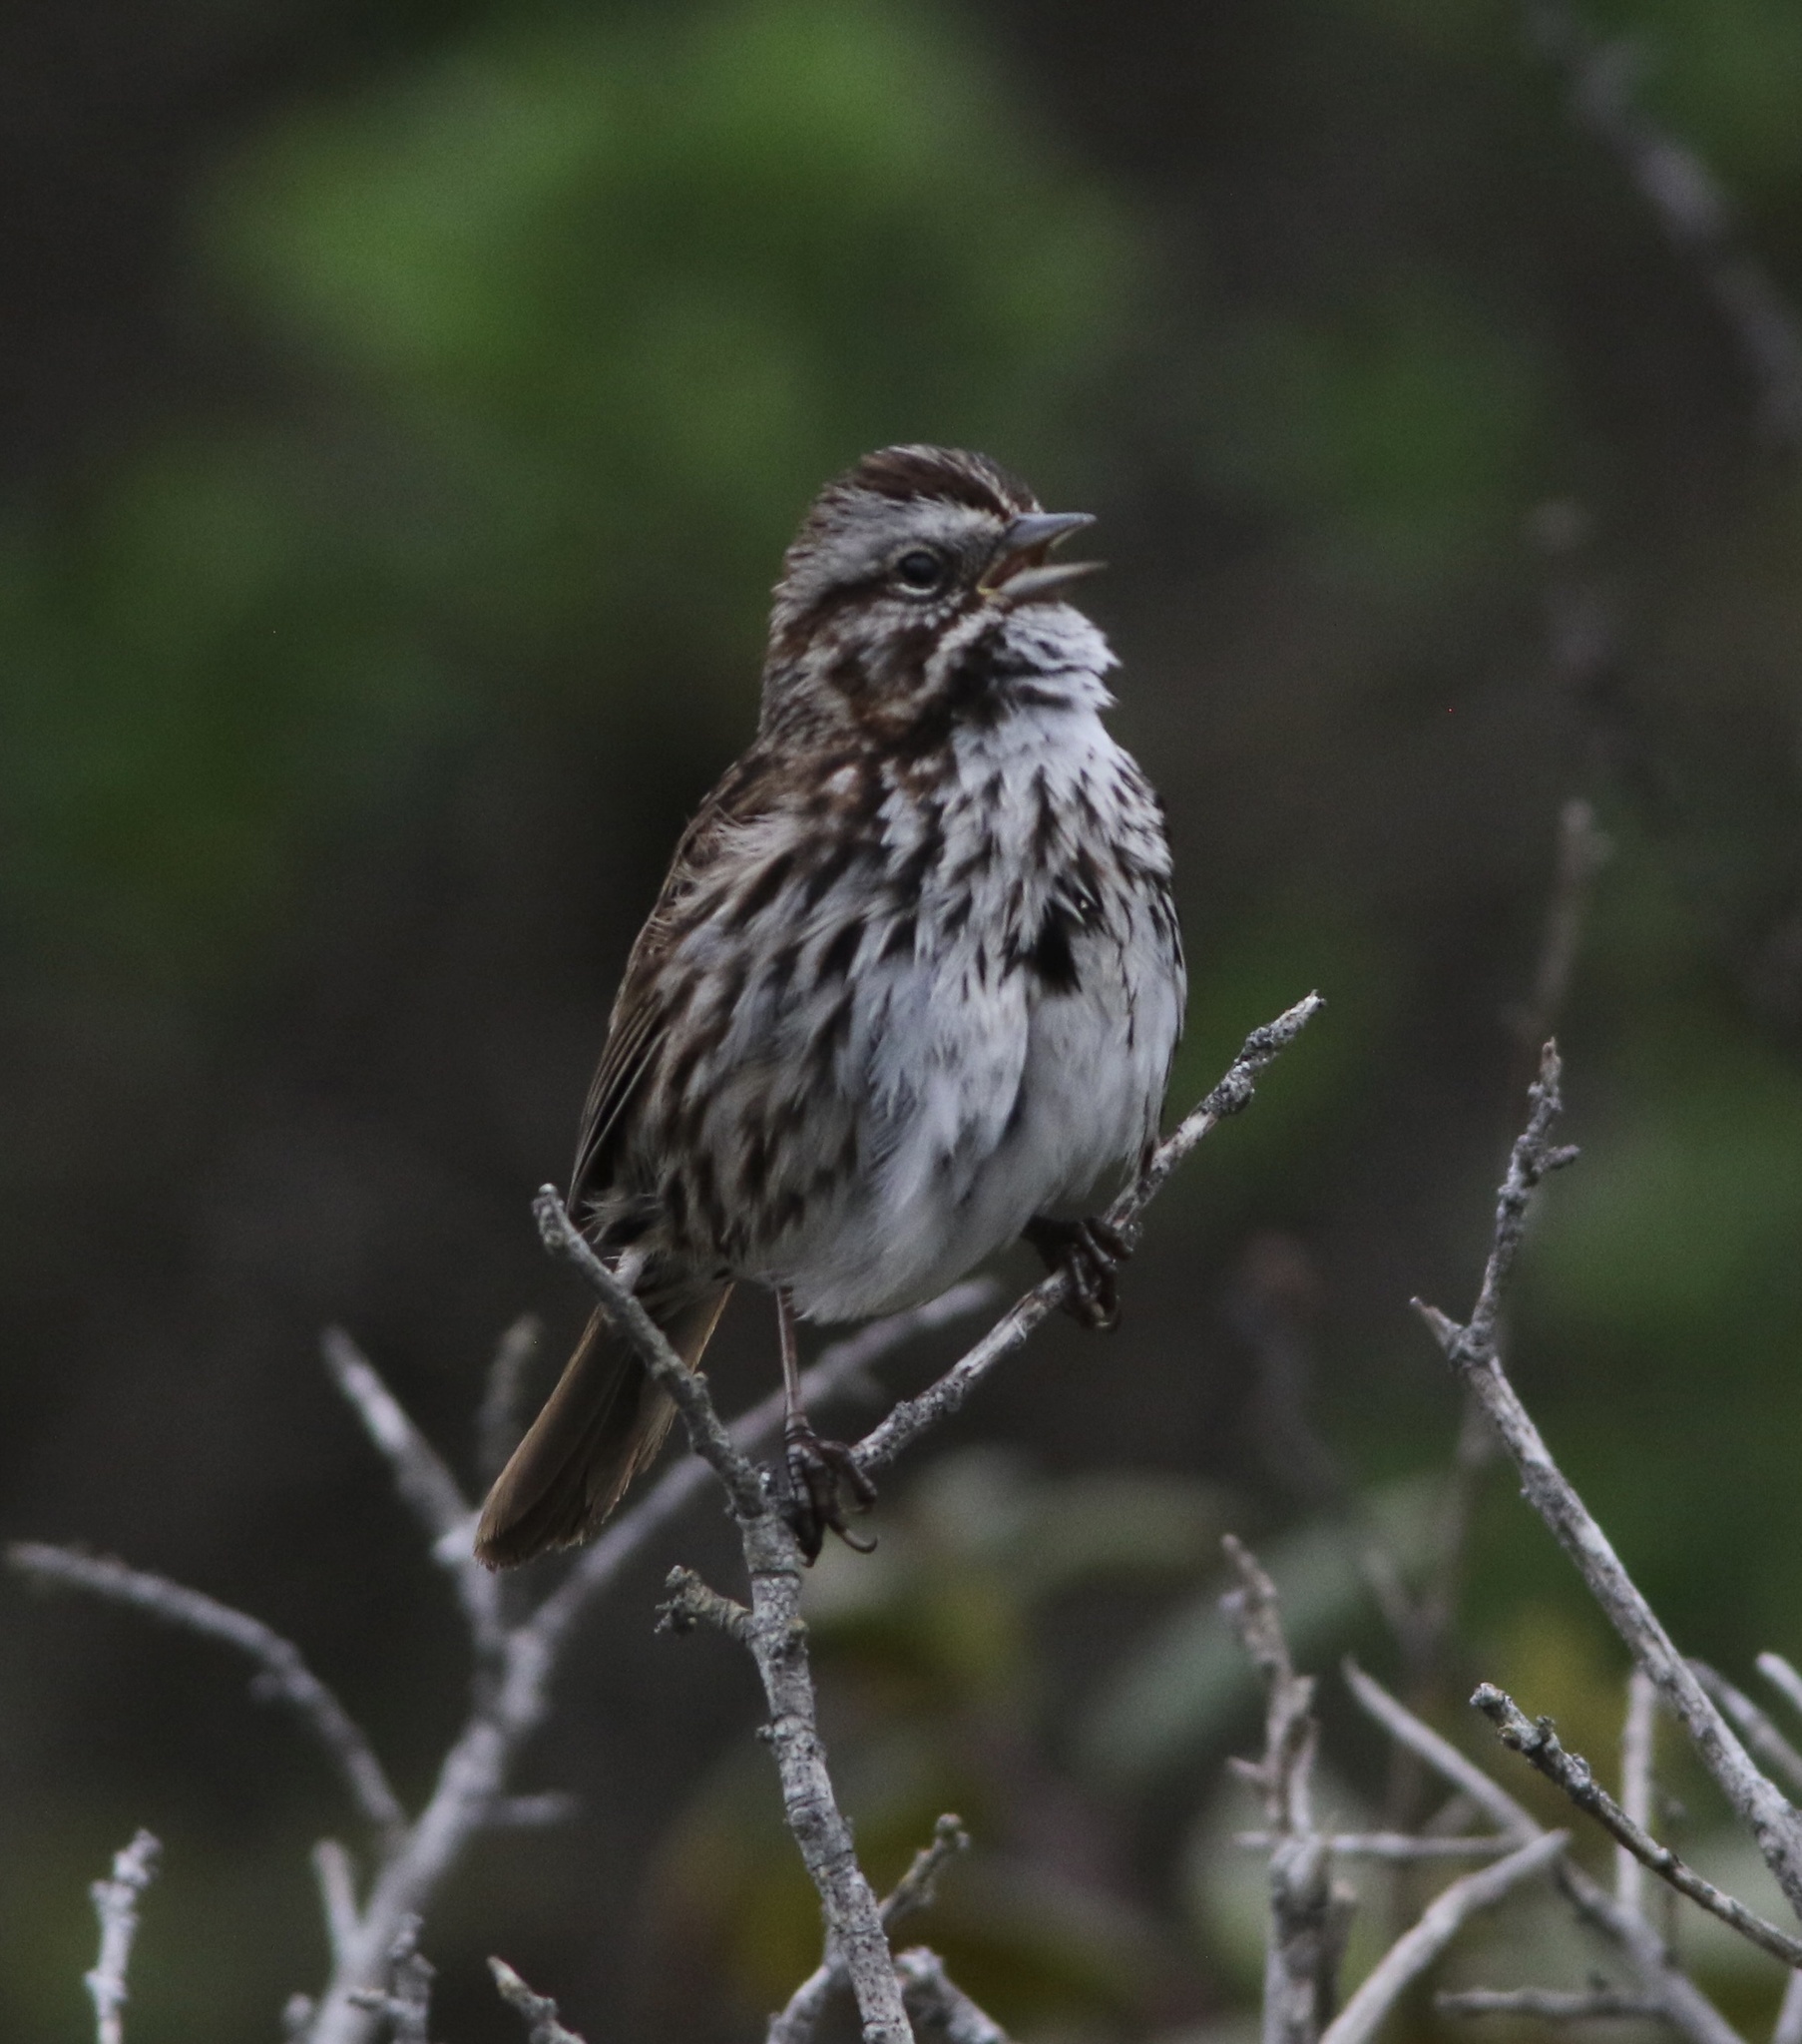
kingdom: Animalia
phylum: Chordata
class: Aves
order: Passeriformes
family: Passerellidae
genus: Melospiza
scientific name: Melospiza melodia
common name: Song sparrow
